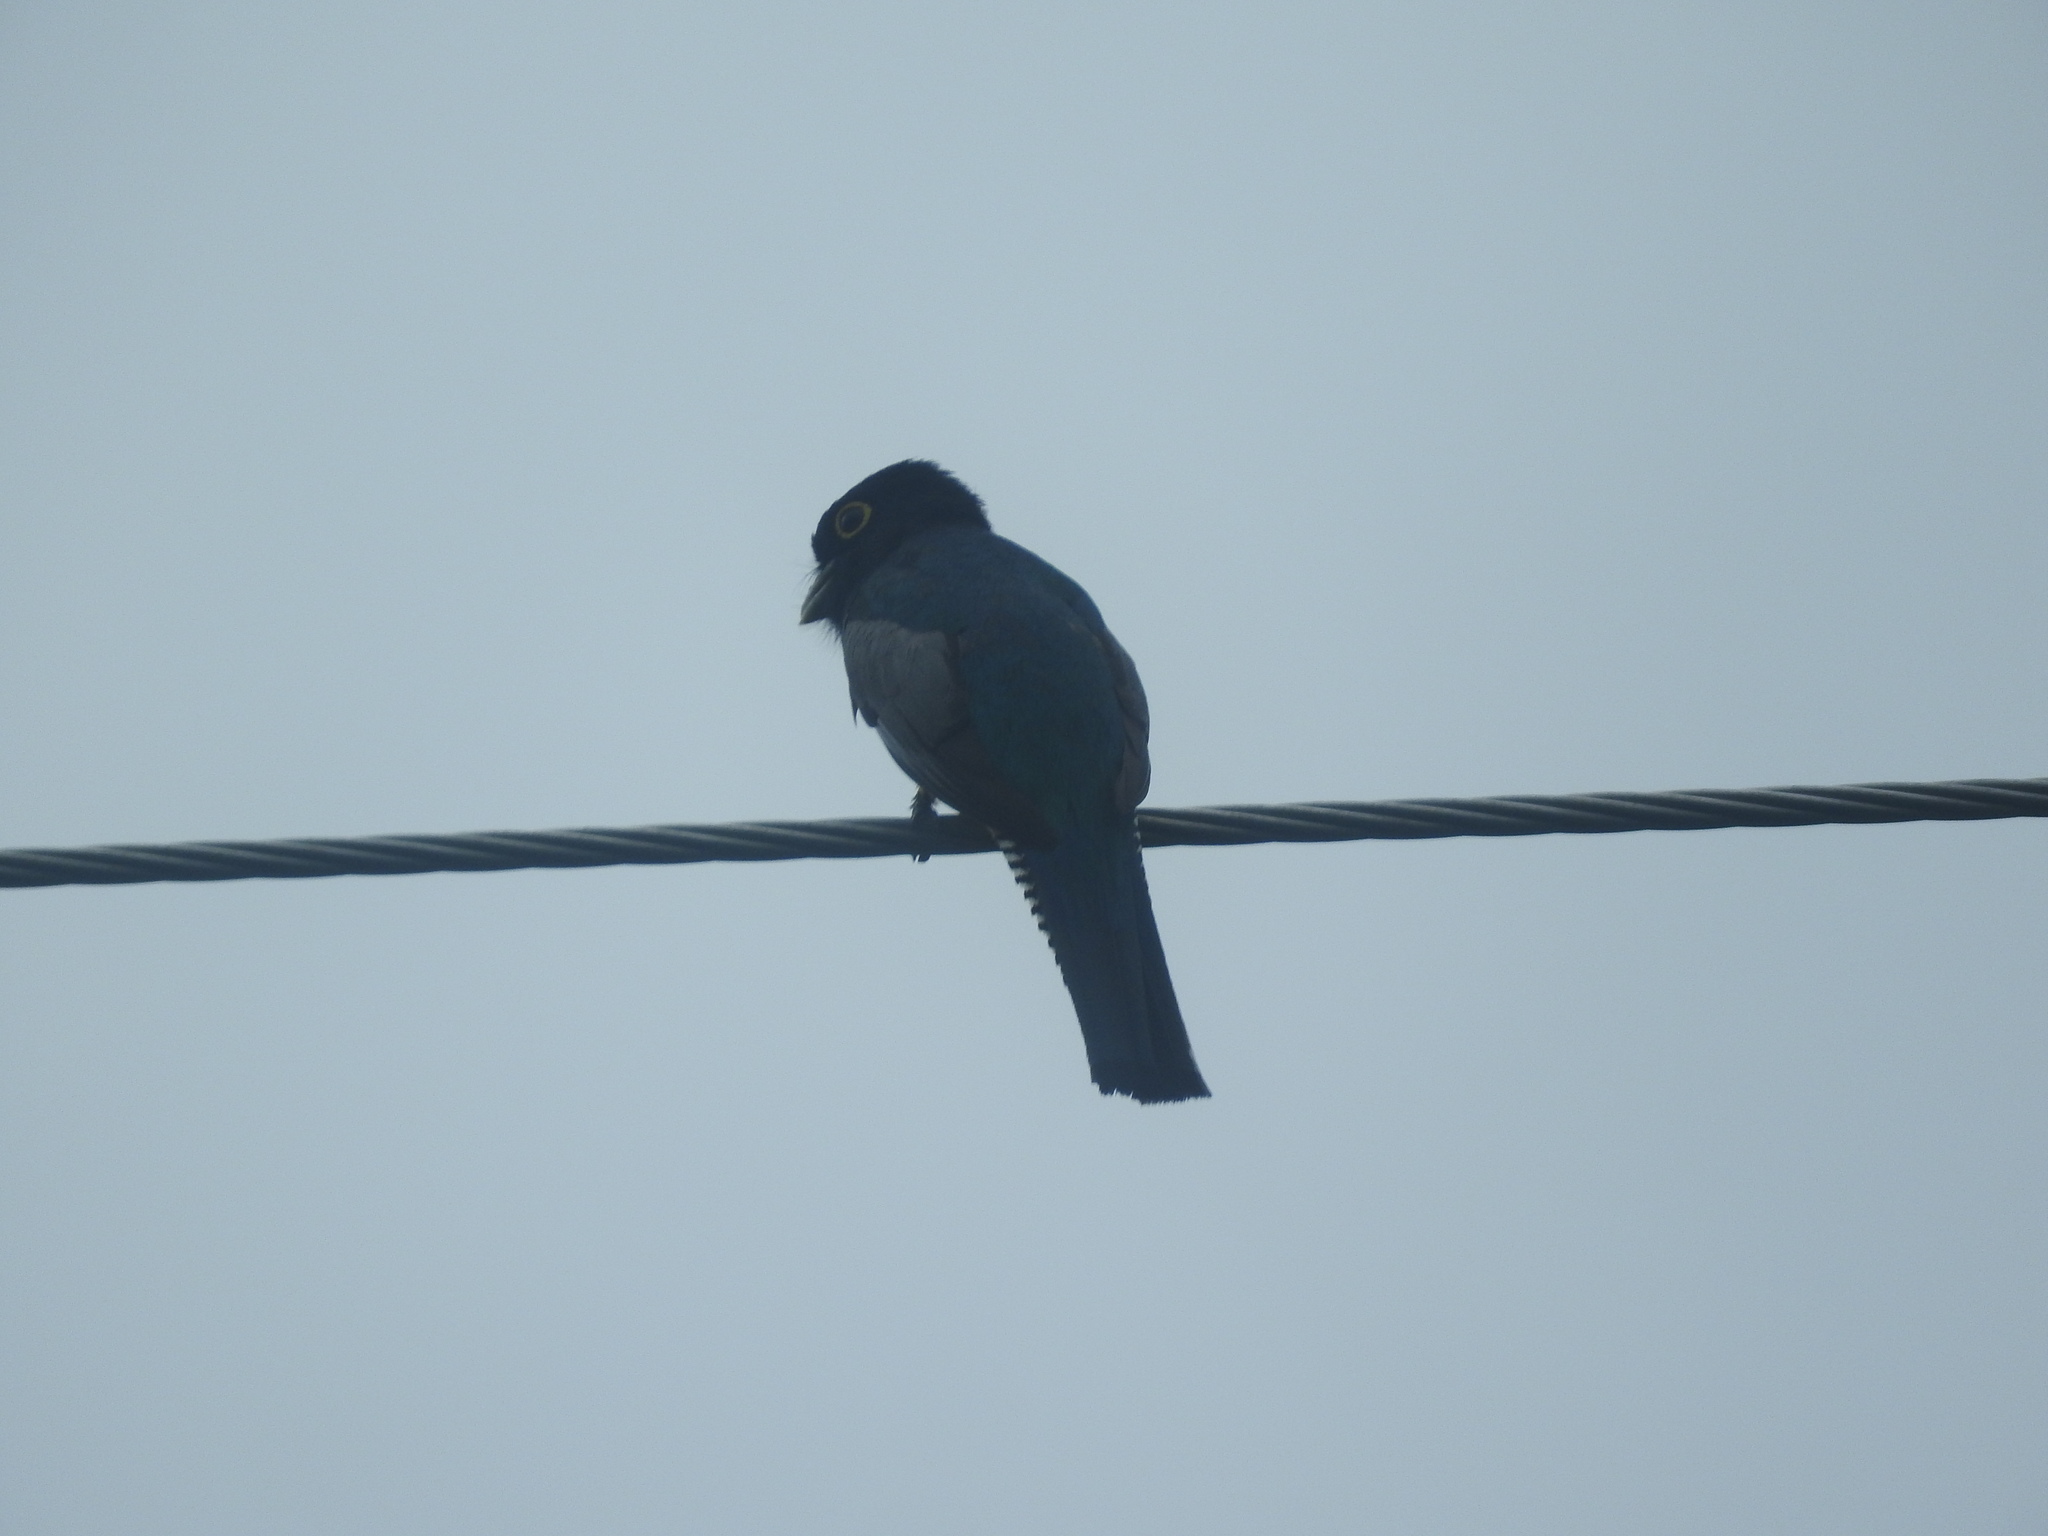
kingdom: Animalia
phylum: Chordata
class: Aves
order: Trogoniformes
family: Trogonidae
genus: Trogon
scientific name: Trogon caligatus
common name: Gartered trogon
